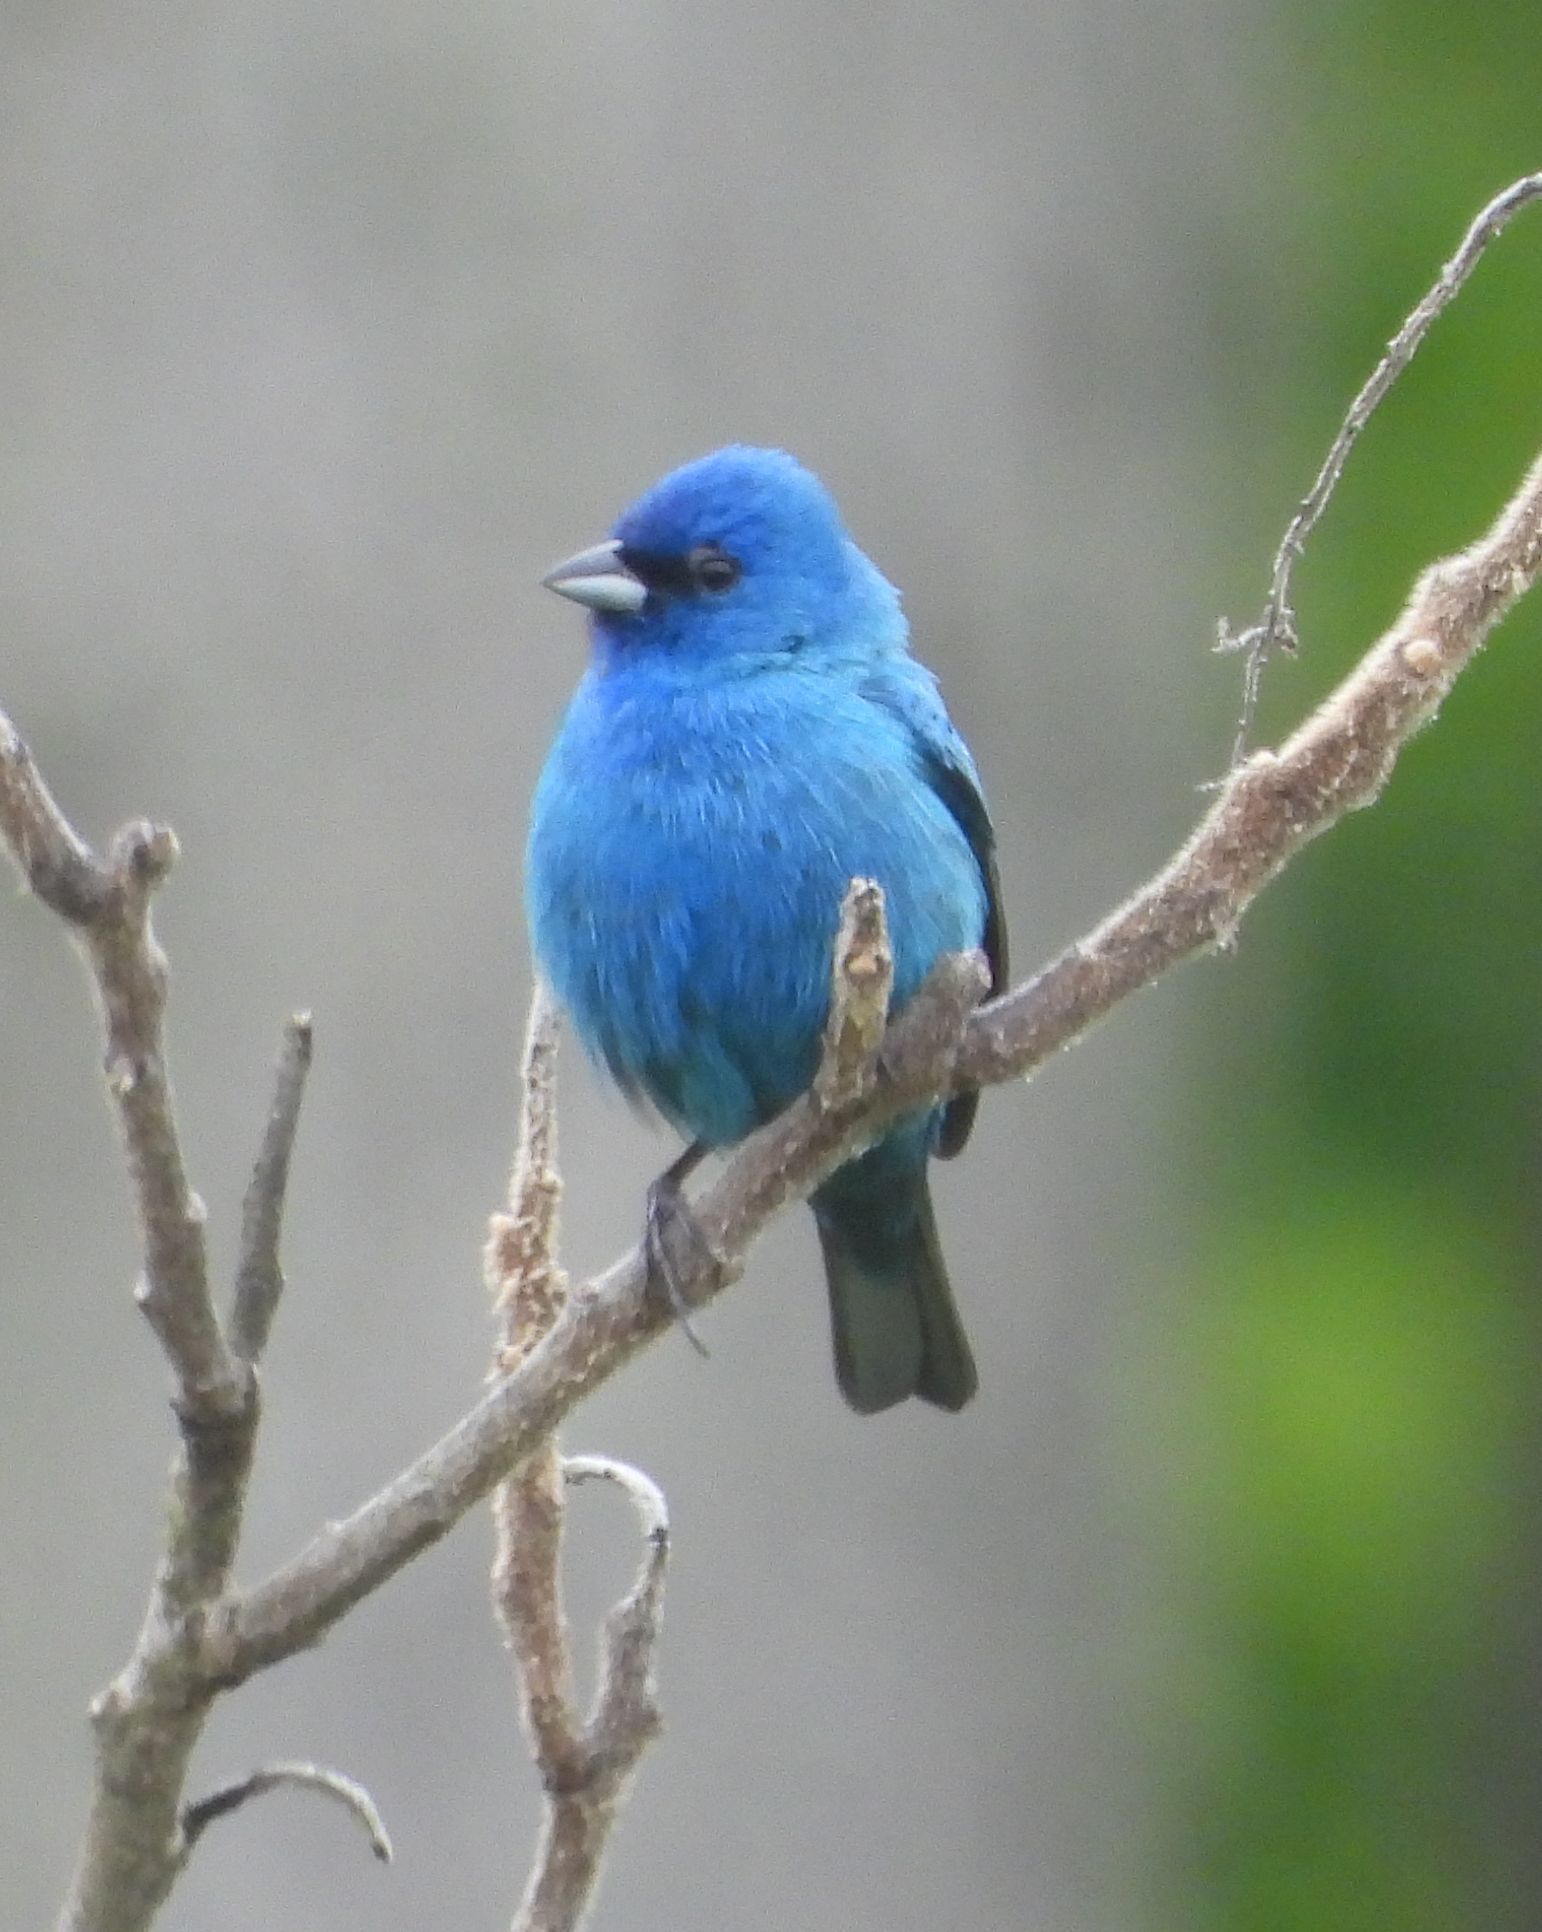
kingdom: Animalia
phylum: Chordata
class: Aves
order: Passeriformes
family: Cardinalidae
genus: Passerina
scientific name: Passerina cyanea
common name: Indigo bunting
